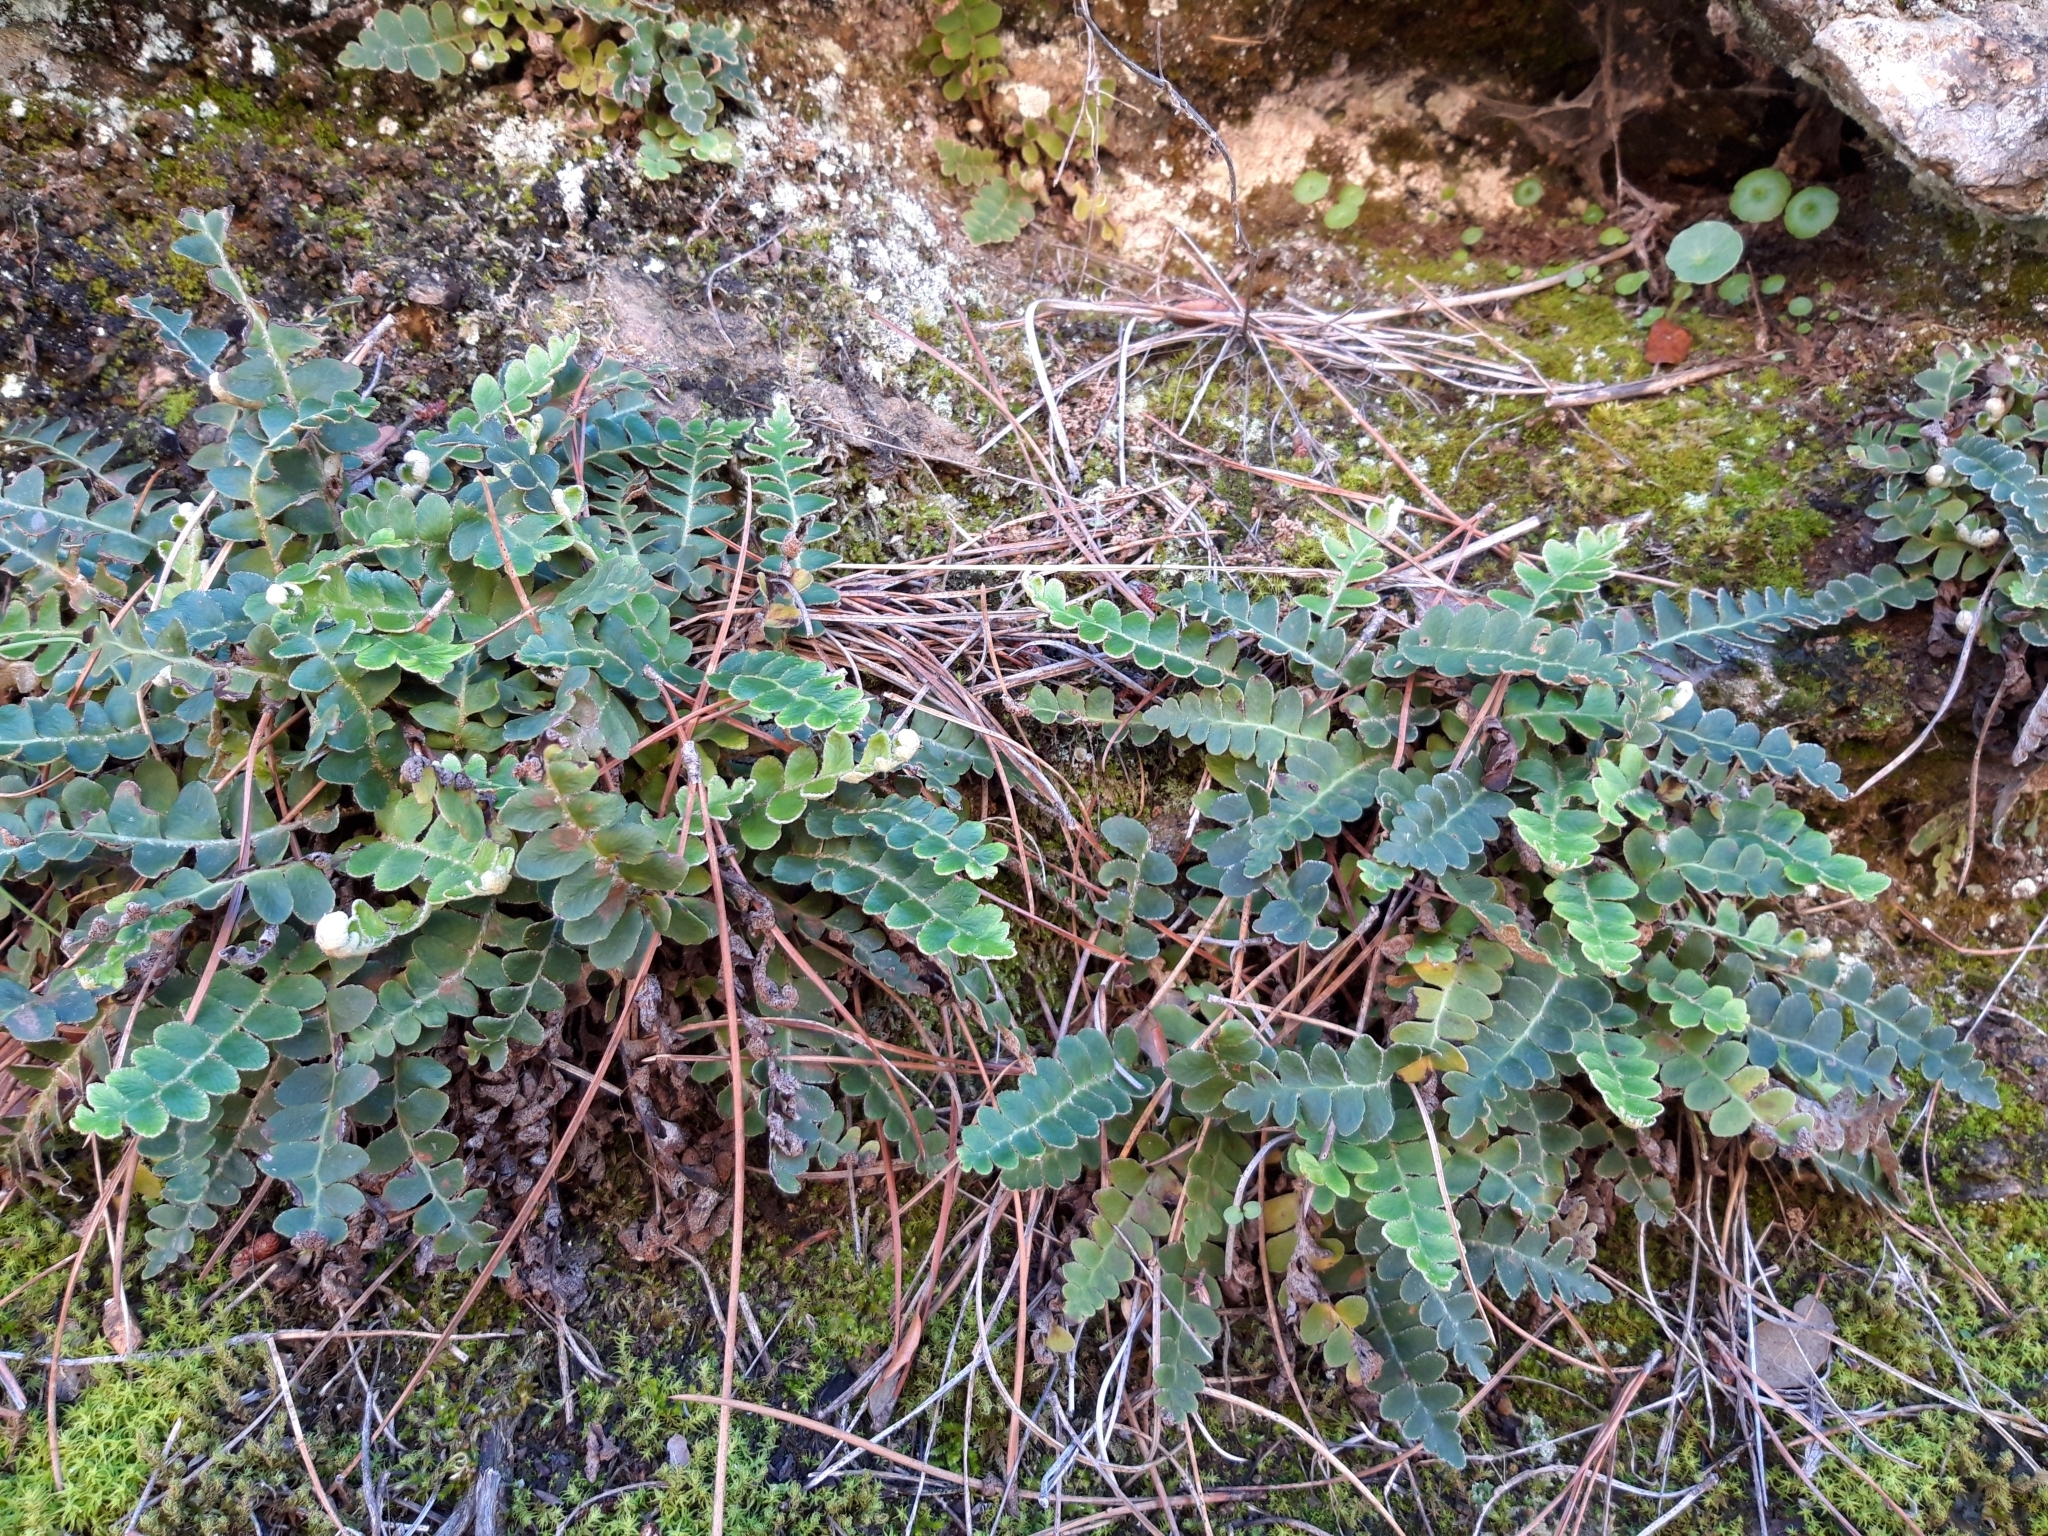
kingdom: Plantae
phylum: Tracheophyta
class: Polypodiopsida
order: Polypodiales
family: Aspleniaceae
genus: Asplenium
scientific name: Asplenium ceterach
